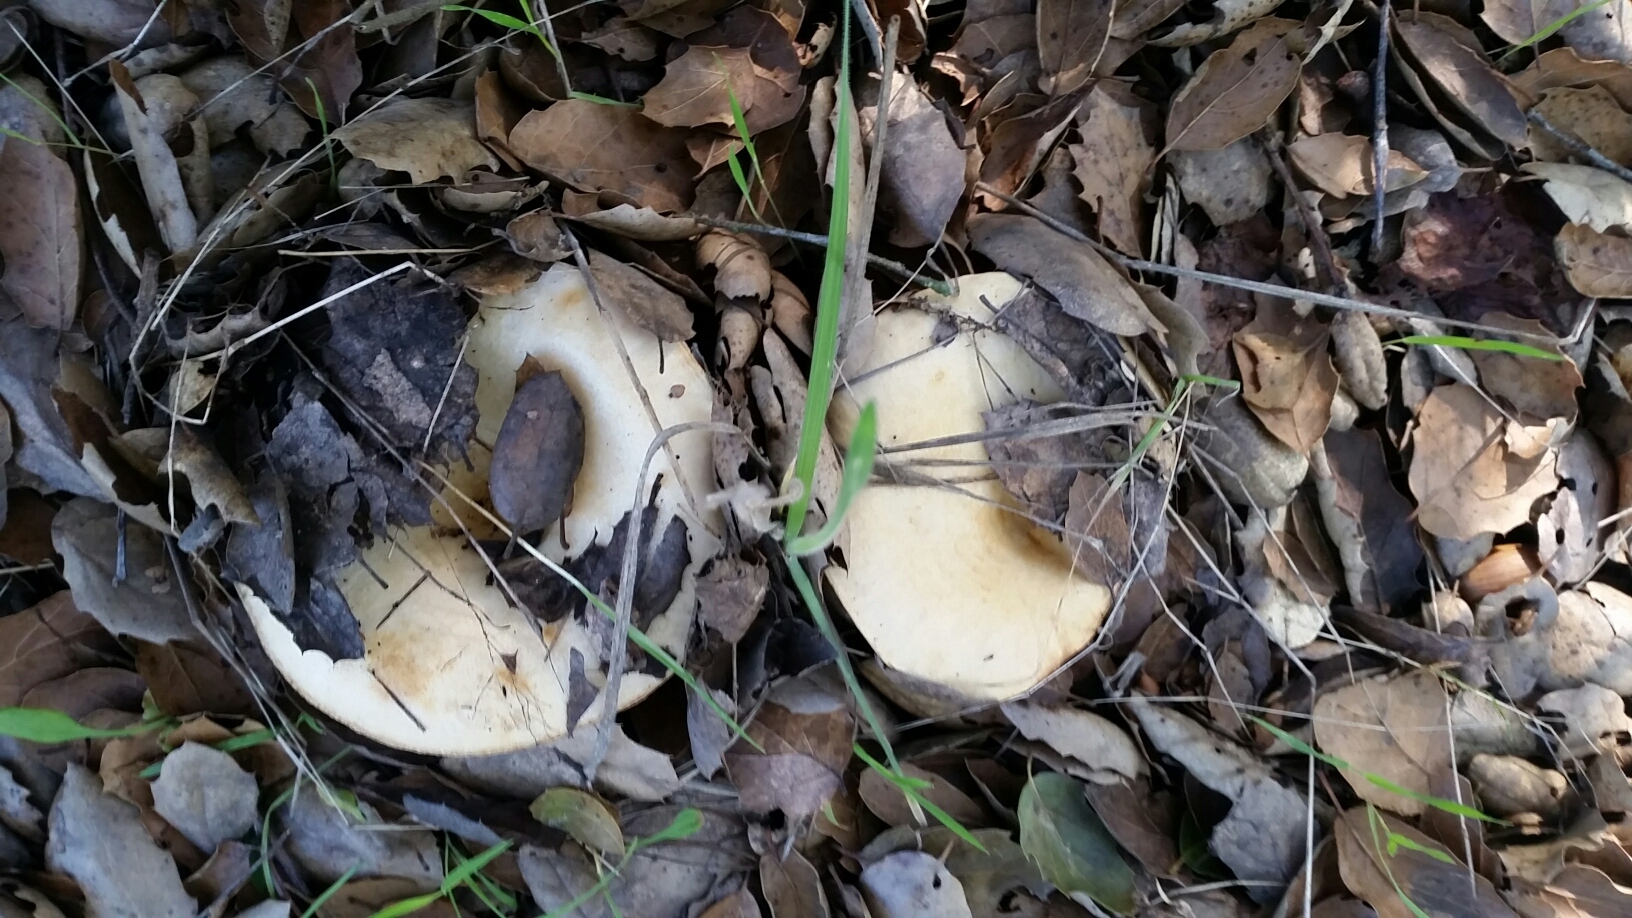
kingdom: Fungi
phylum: Basidiomycota
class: Agaricomycetes
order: Russulales
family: Russulaceae
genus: Lactarius
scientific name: Lactarius alnicola
